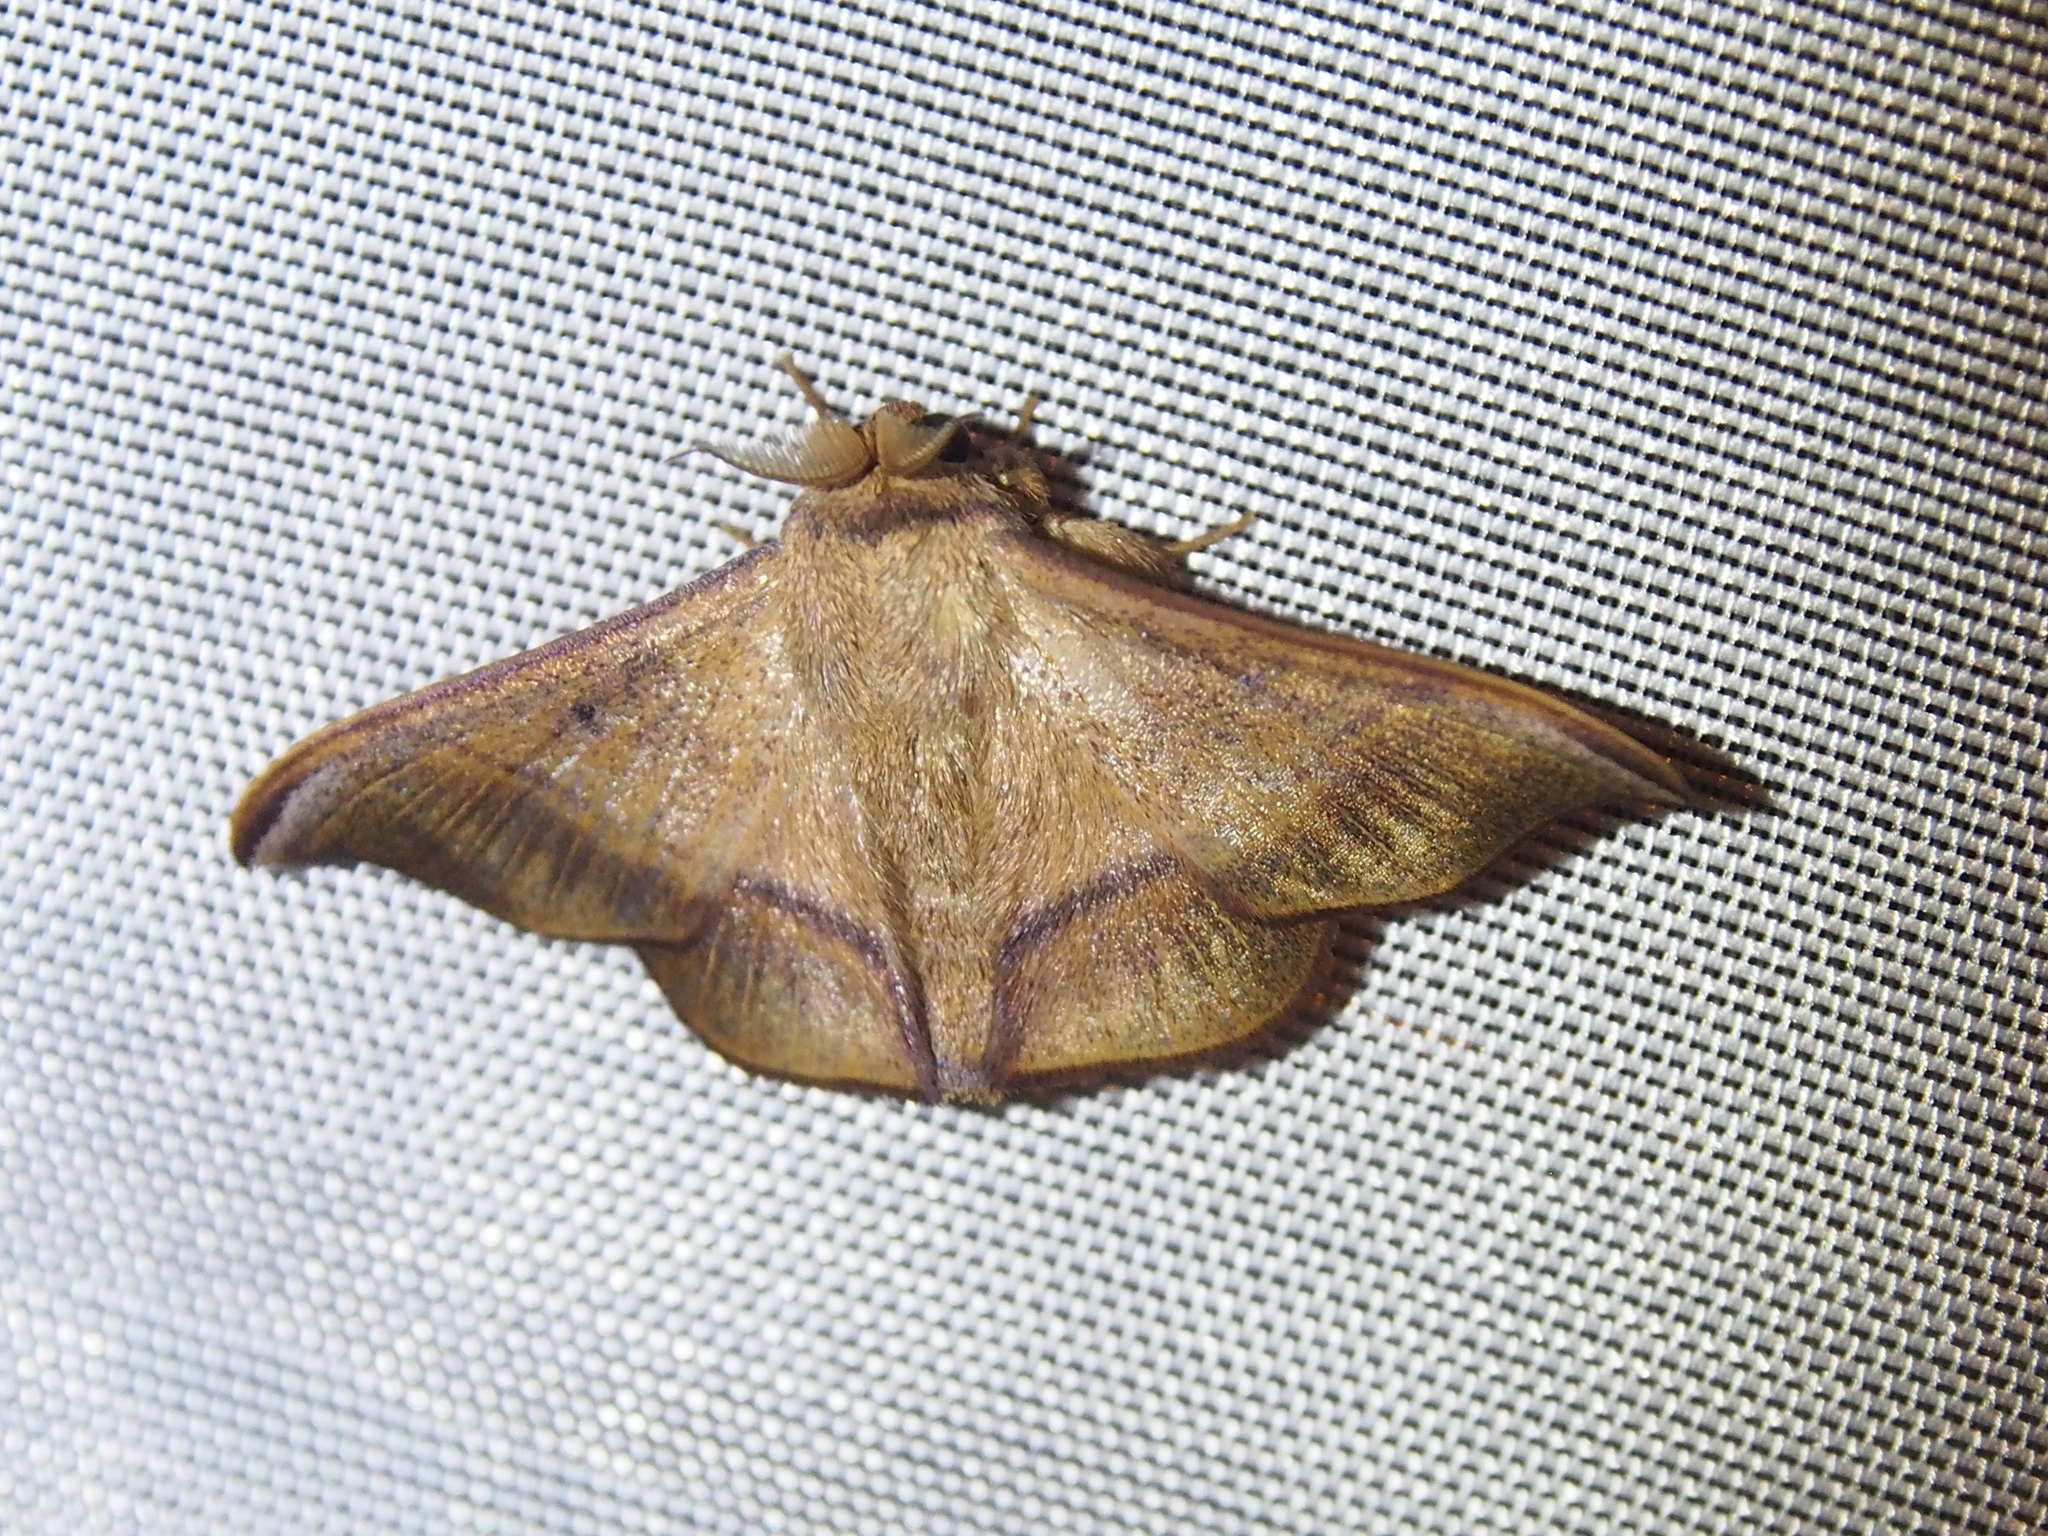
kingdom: Animalia
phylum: Arthropoda
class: Insecta
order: Lepidoptera
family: Mimallonidae
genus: Alheita
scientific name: Alheita pulla
